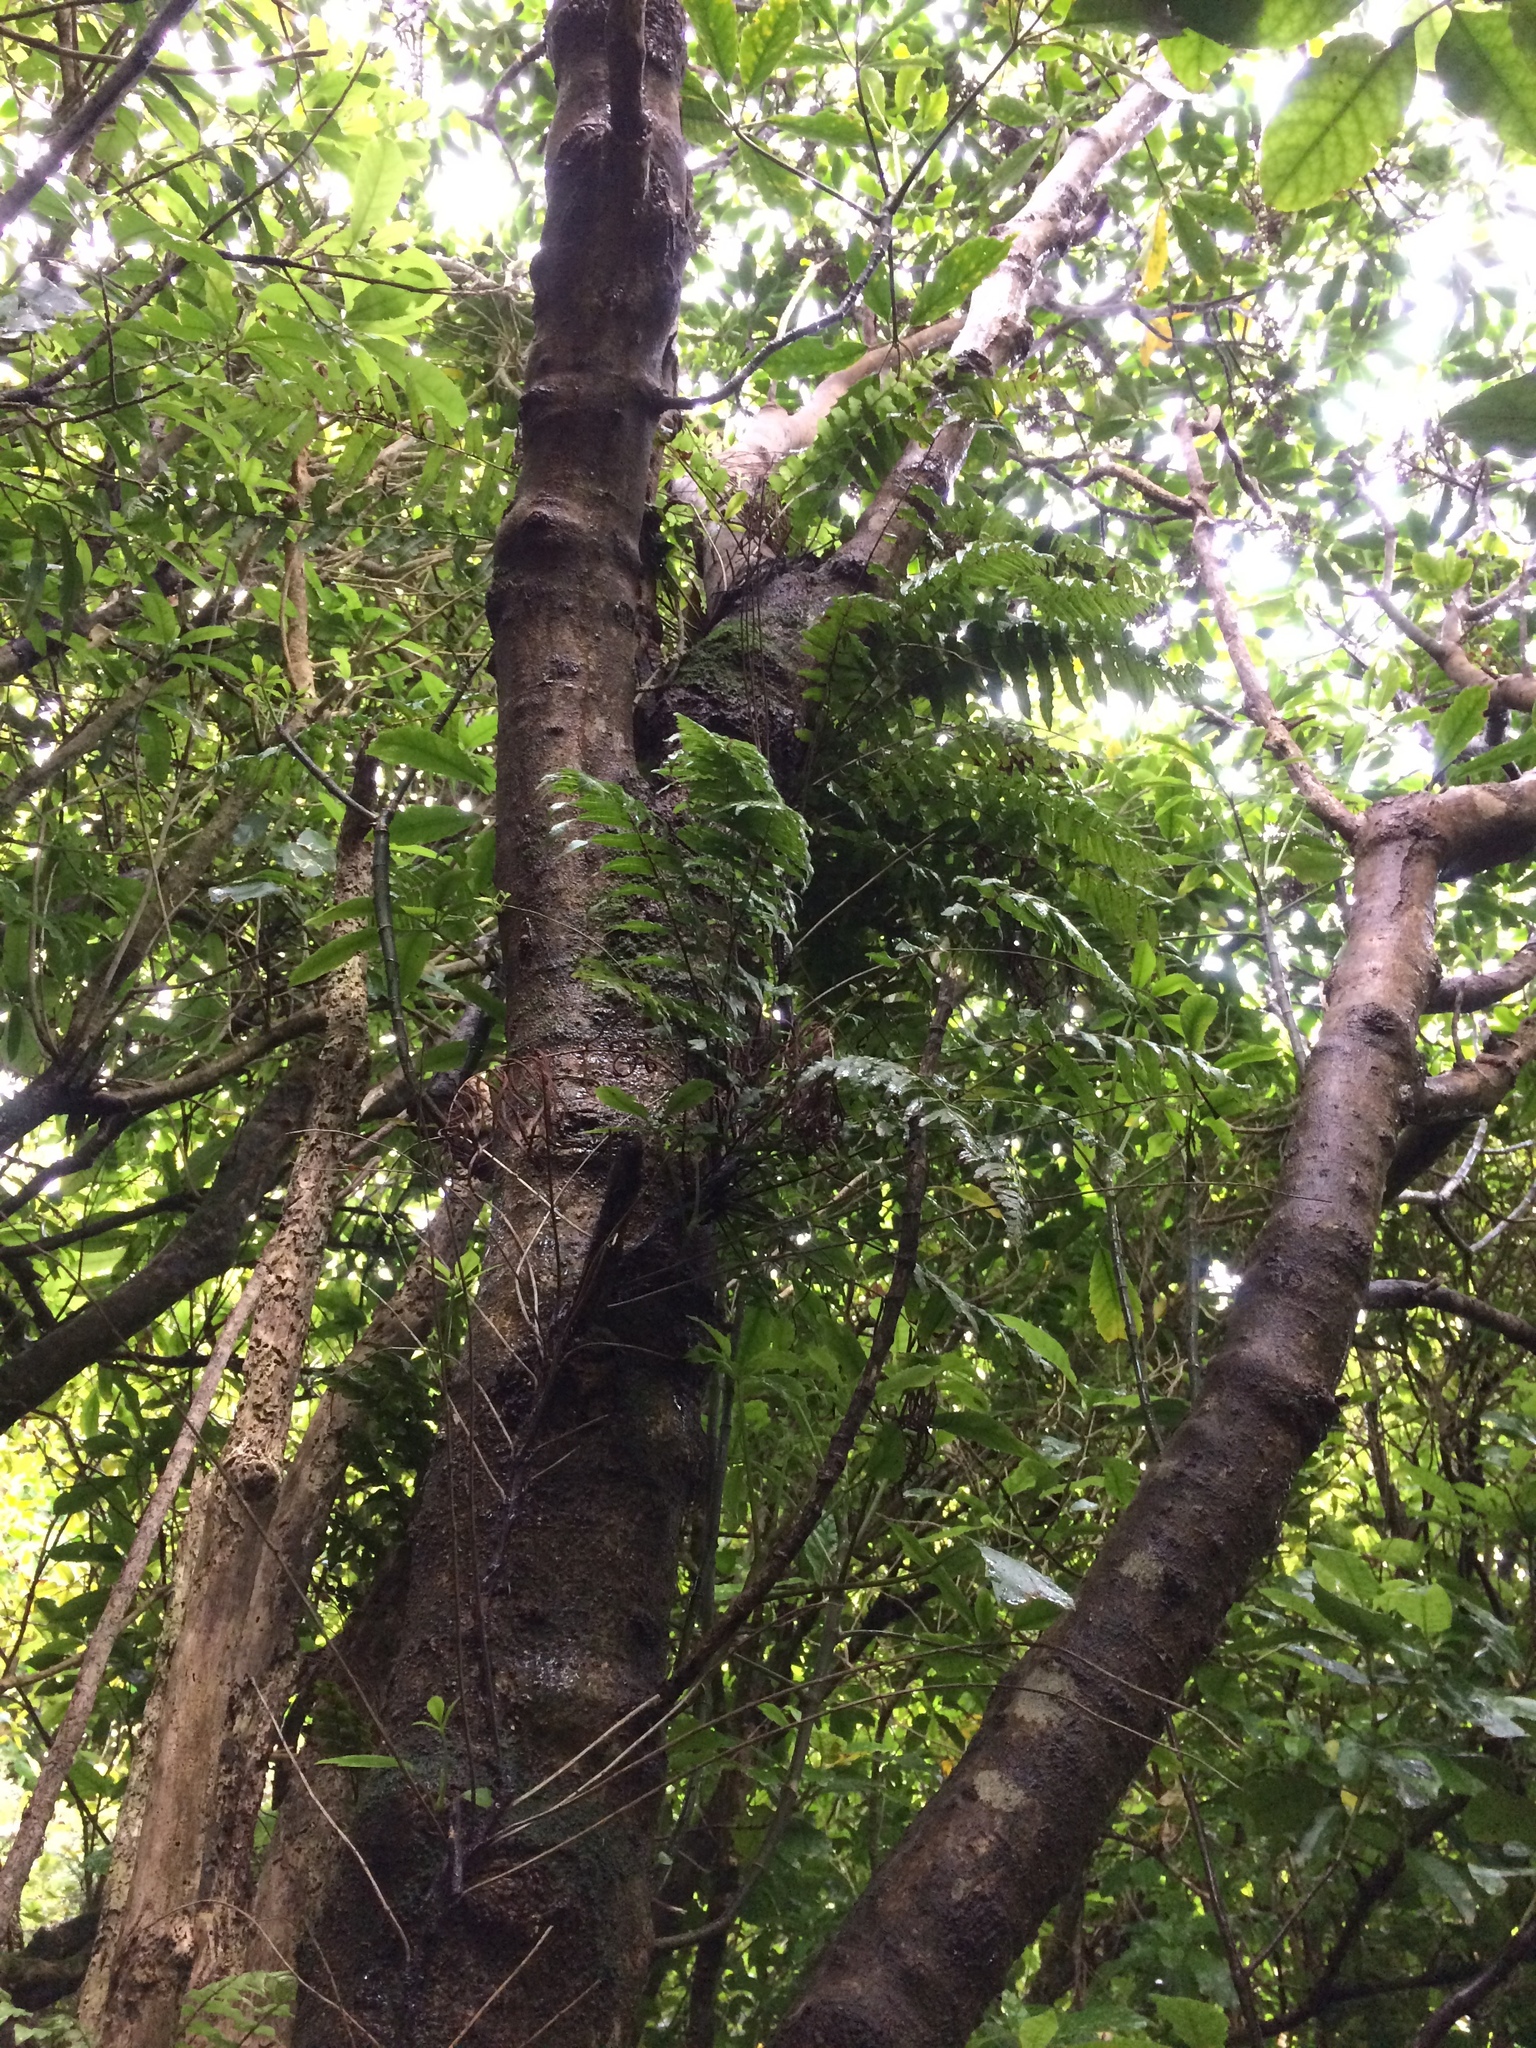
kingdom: Plantae
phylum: Tracheophyta
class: Polypodiopsida
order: Polypodiales
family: Blechnaceae
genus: Icarus
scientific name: Icarus filiformis
